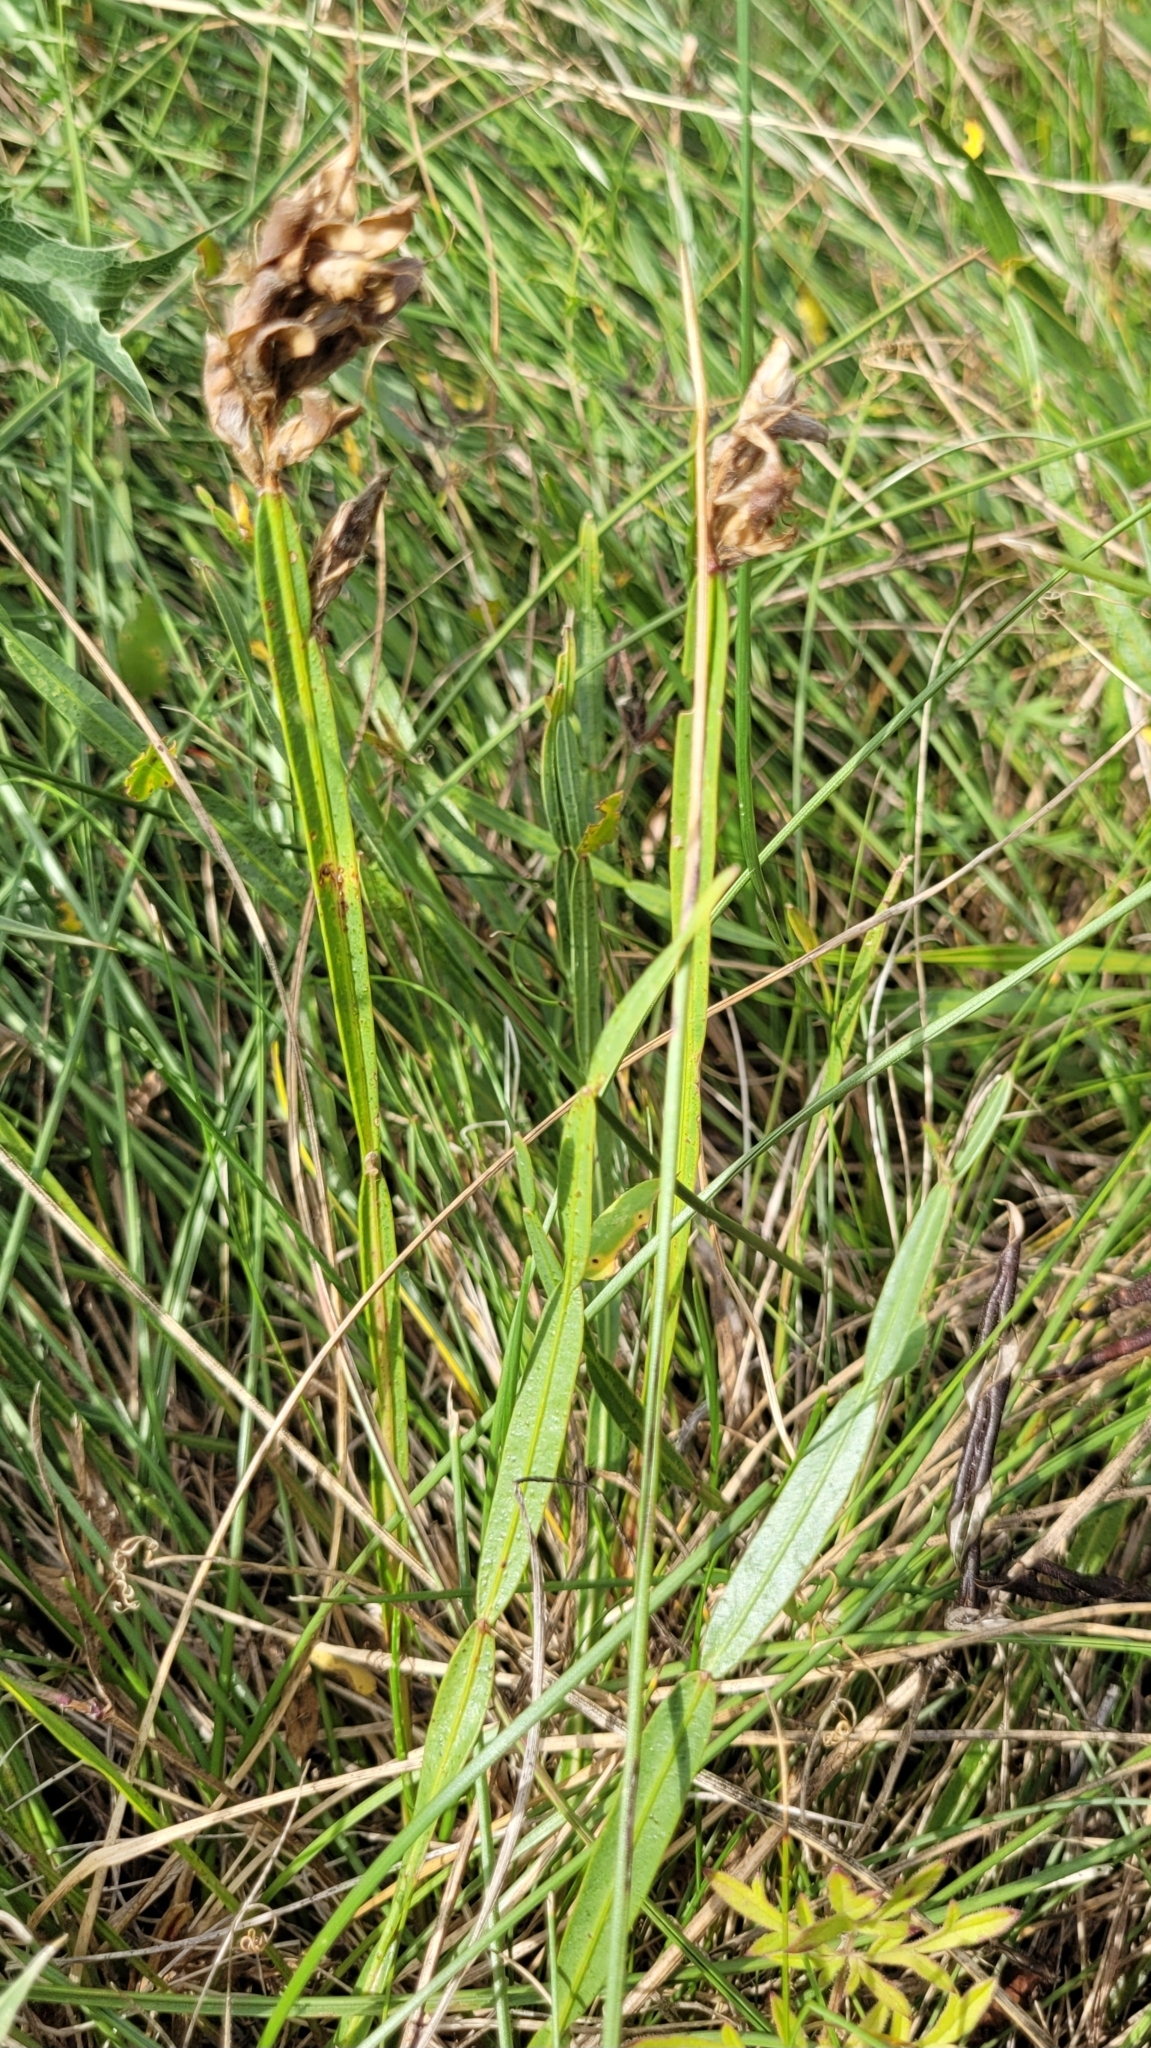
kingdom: Plantae
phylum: Tracheophyta
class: Magnoliopsida
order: Fabales
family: Fabaceae
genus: Genista
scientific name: Genista sagittalis
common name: Winged greenweed
